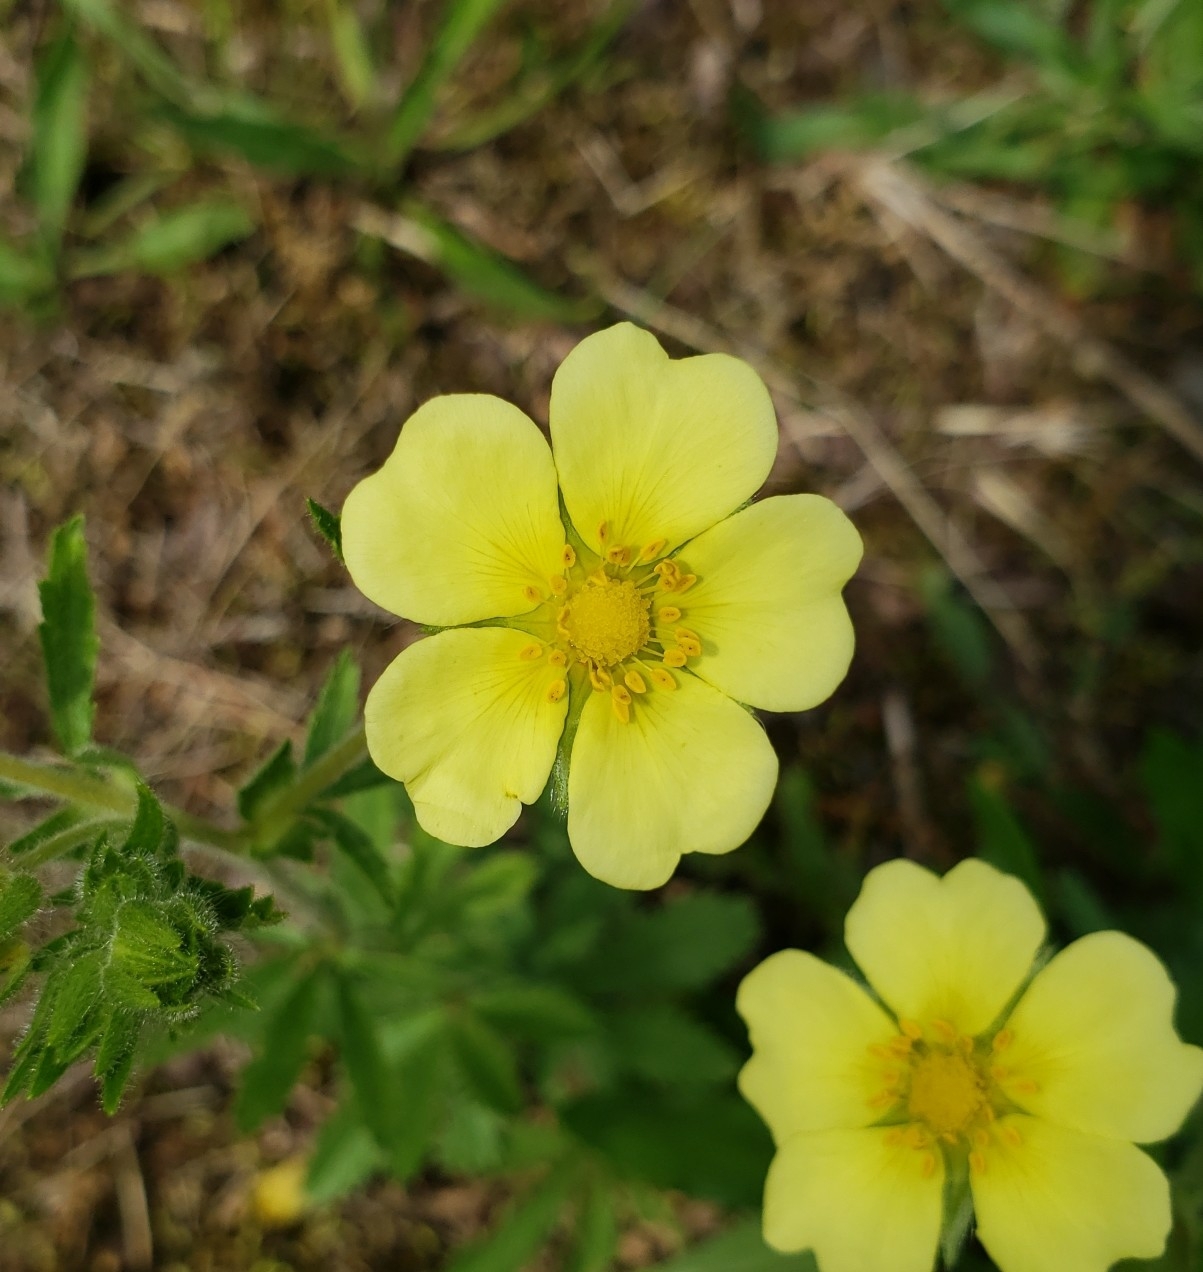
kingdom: Plantae
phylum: Tracheophyta
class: Magnoliopsida
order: Rosales
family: Rosaceae
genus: Potentilla
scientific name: Potentilla recta
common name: Sulphur cinquefoil
